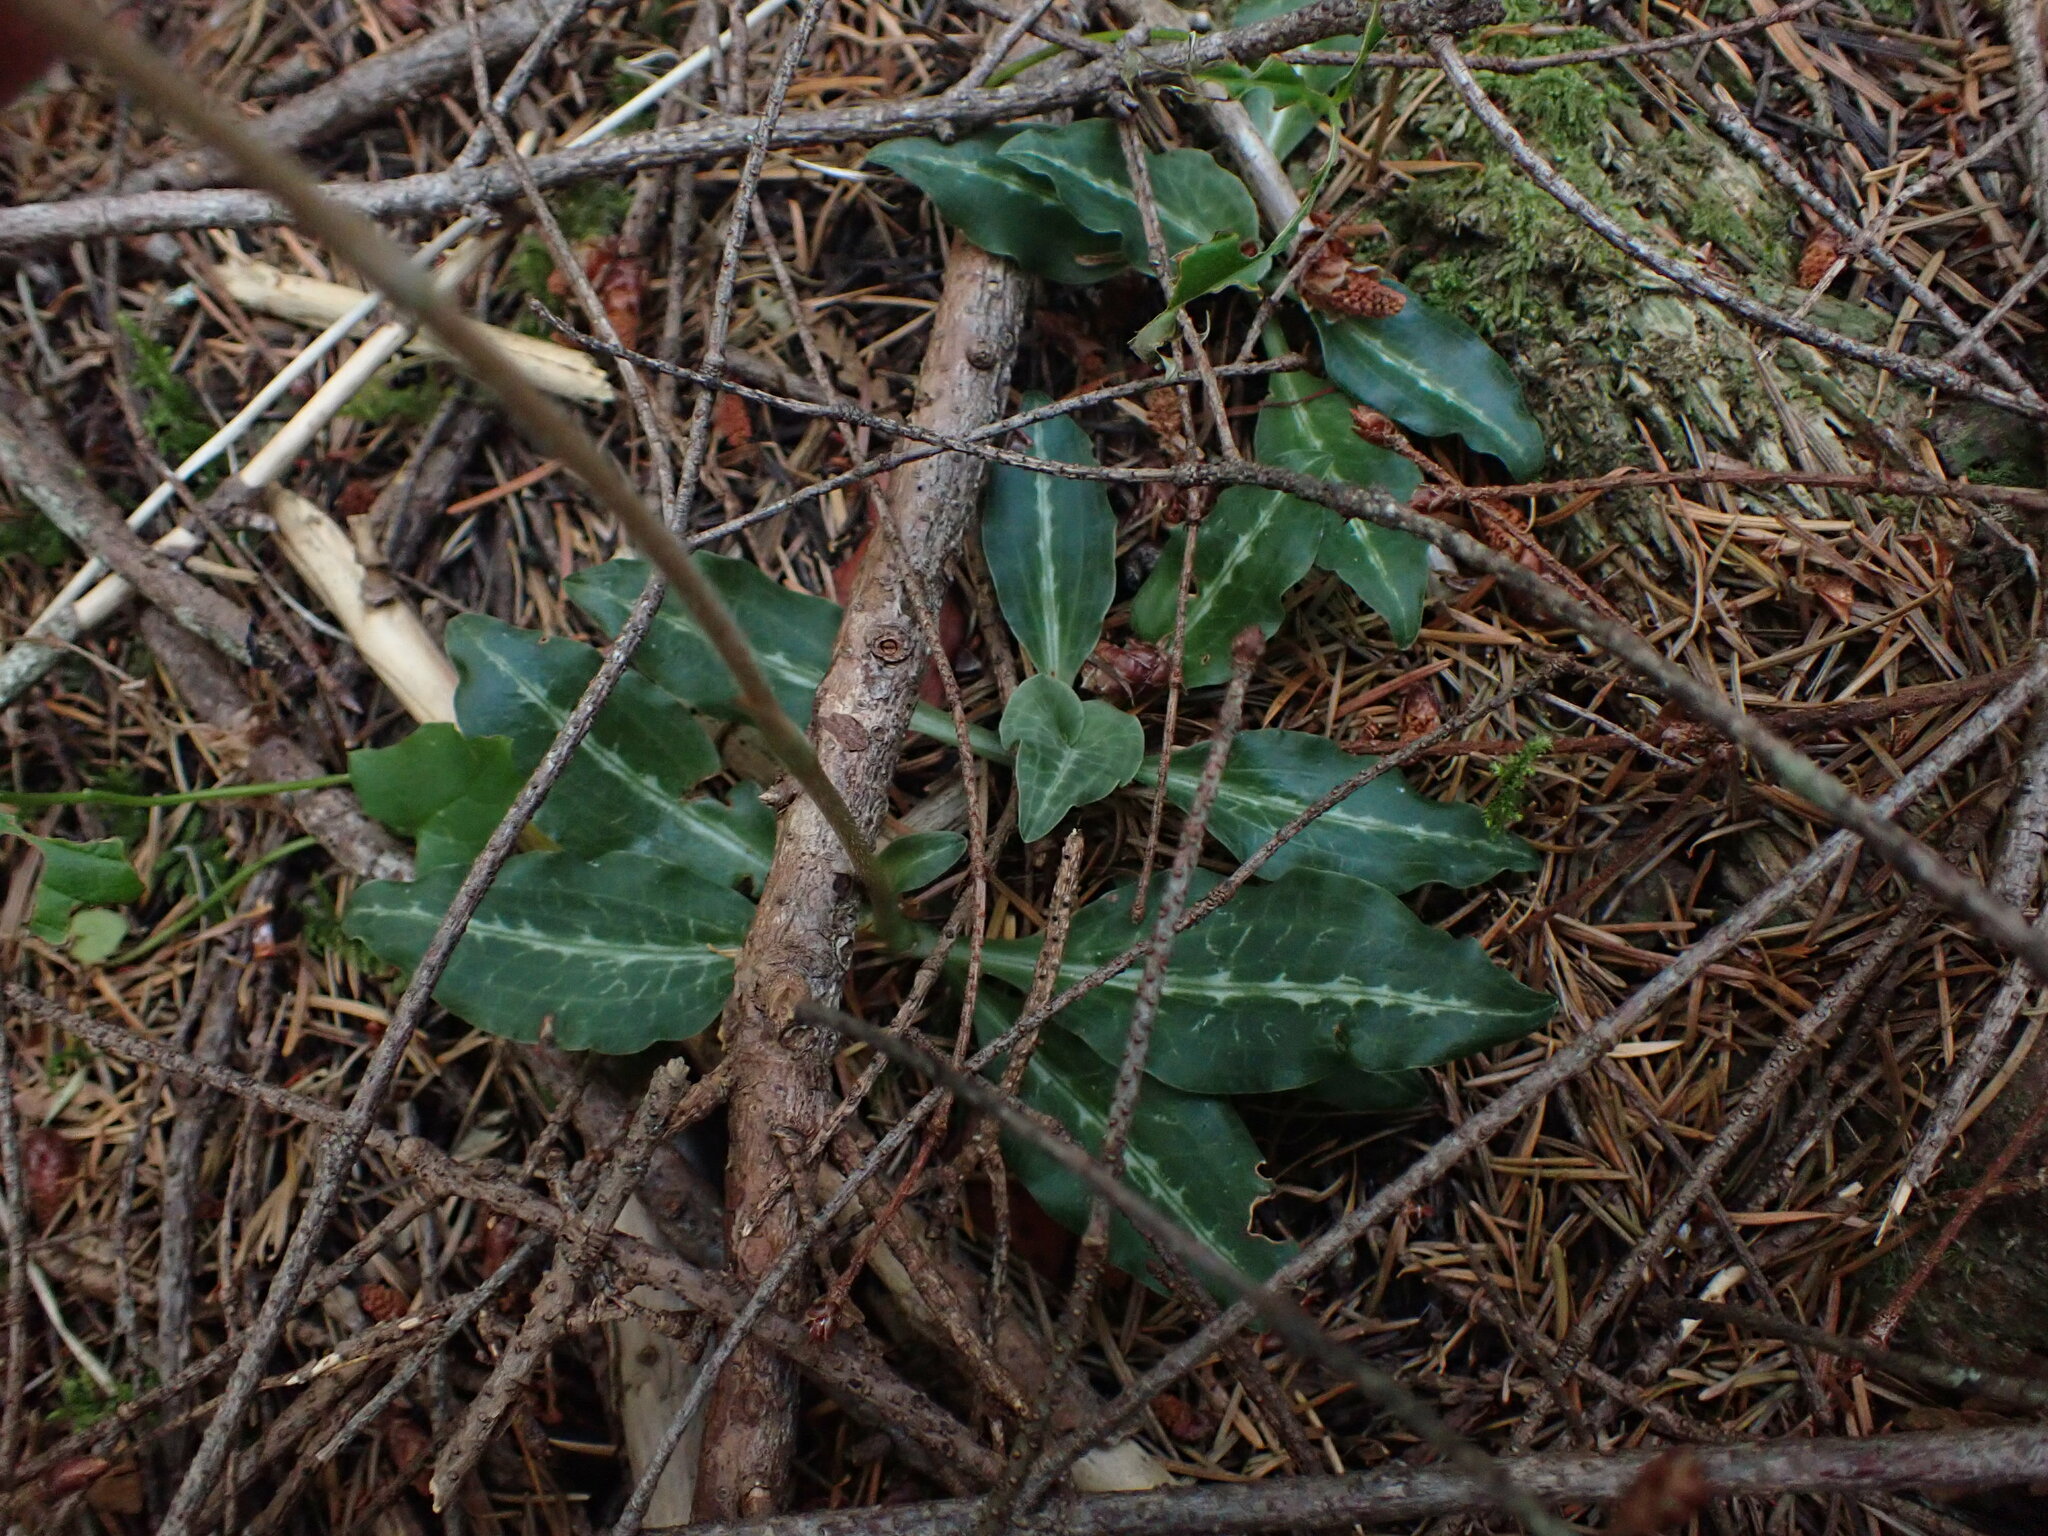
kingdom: Plantae
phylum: Tracheophyta
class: Liliopsida
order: Asparagales
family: Orchidaceae
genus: Goodyera
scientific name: Goodyera oblongifolia
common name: Giant rattlesnake-plantain
